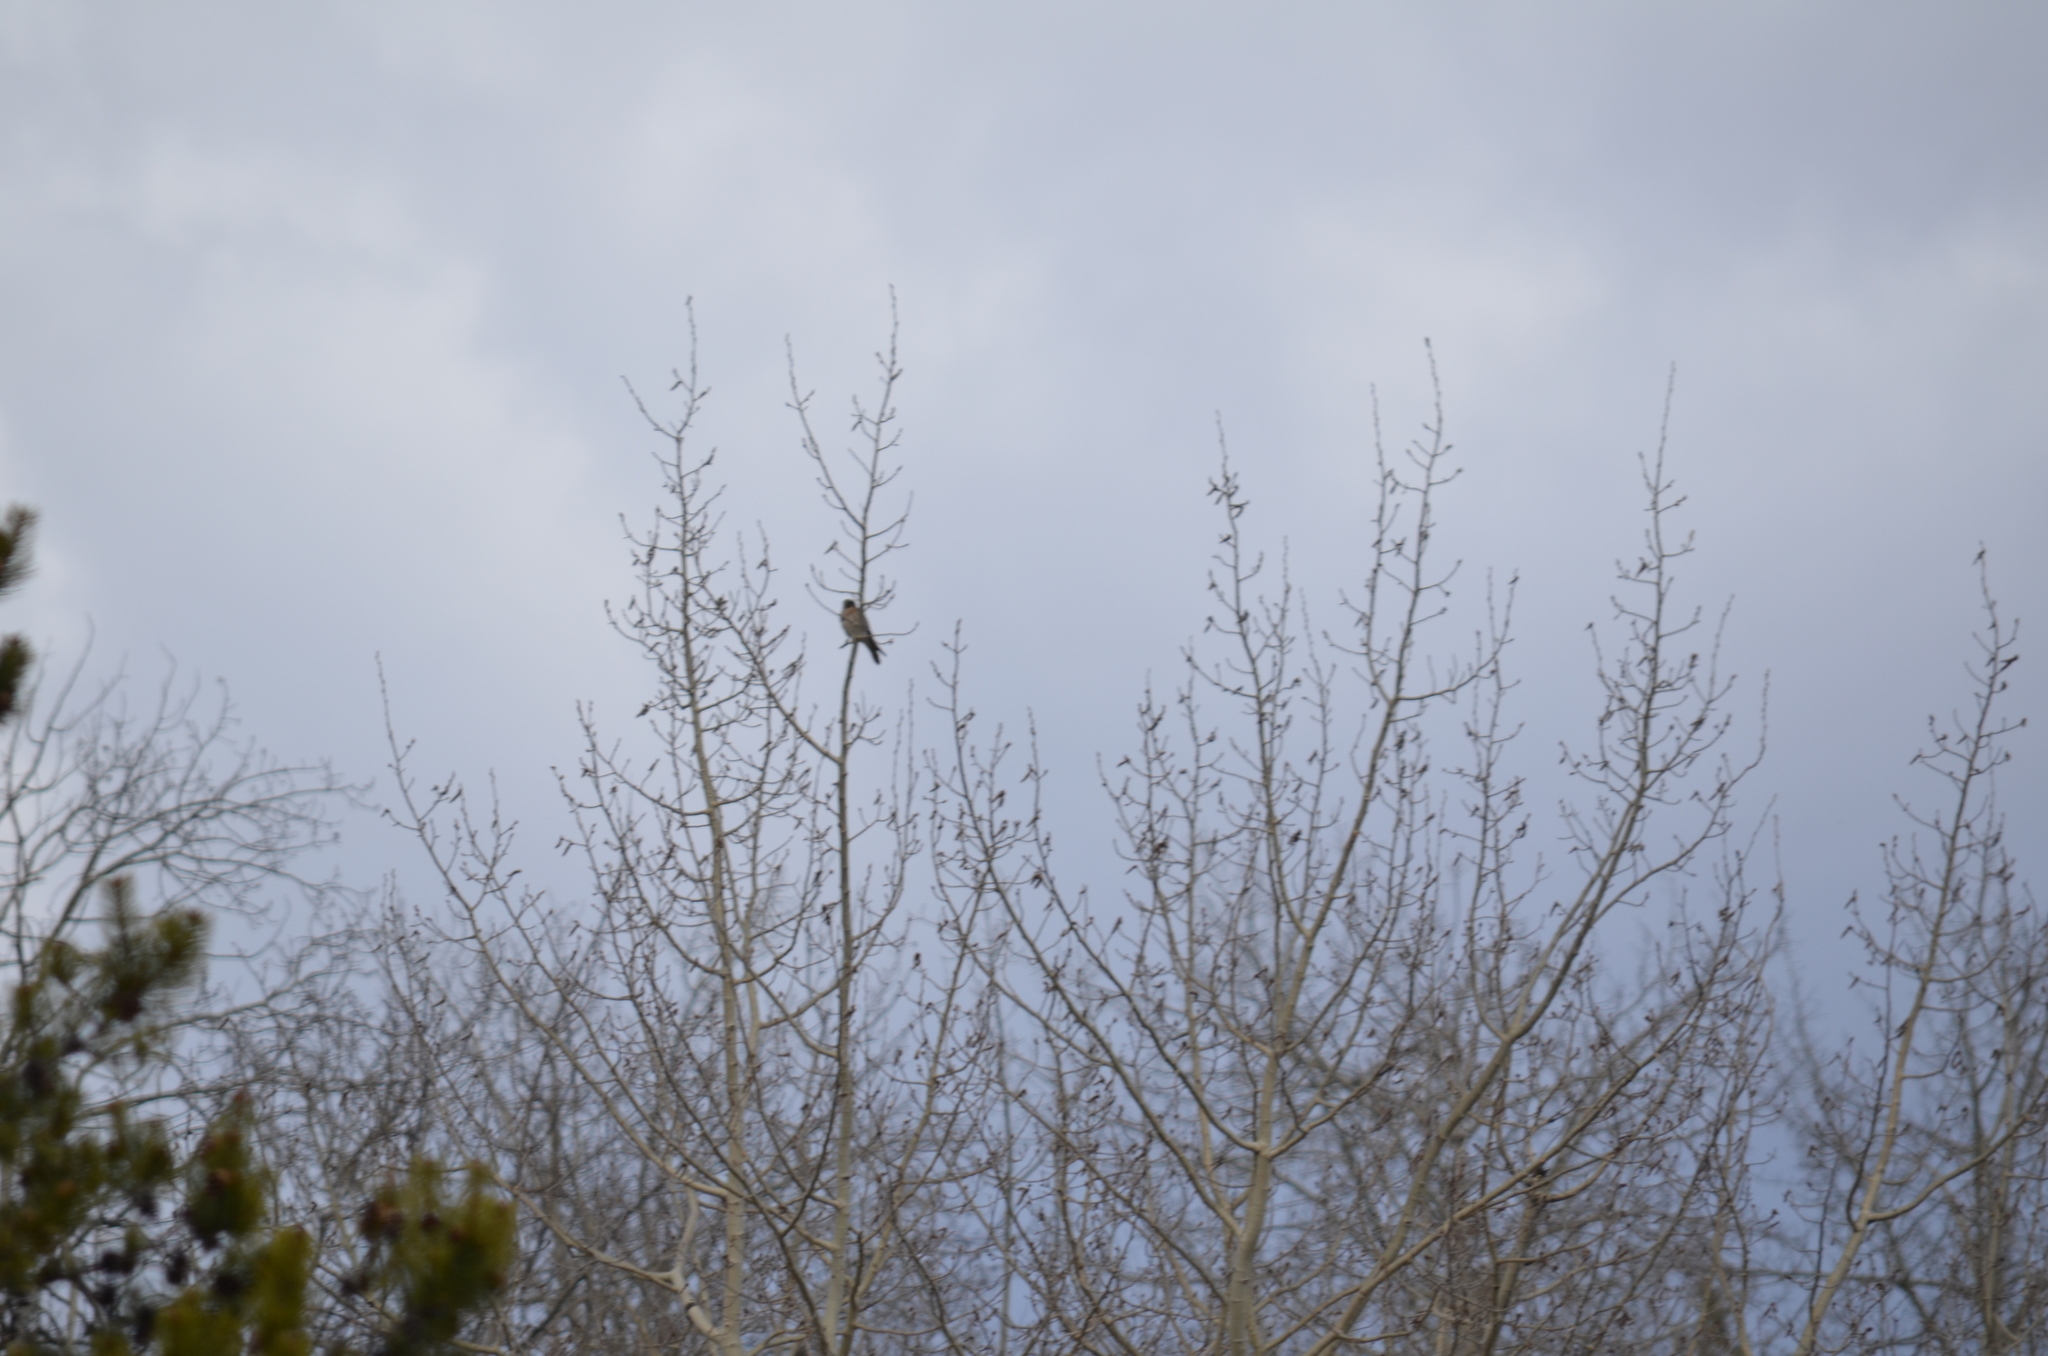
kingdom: Animalia
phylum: Chordata
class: Aves
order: Falconiformes
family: Falconidae
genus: Falco
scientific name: Falco sparverius
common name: American kestrel
